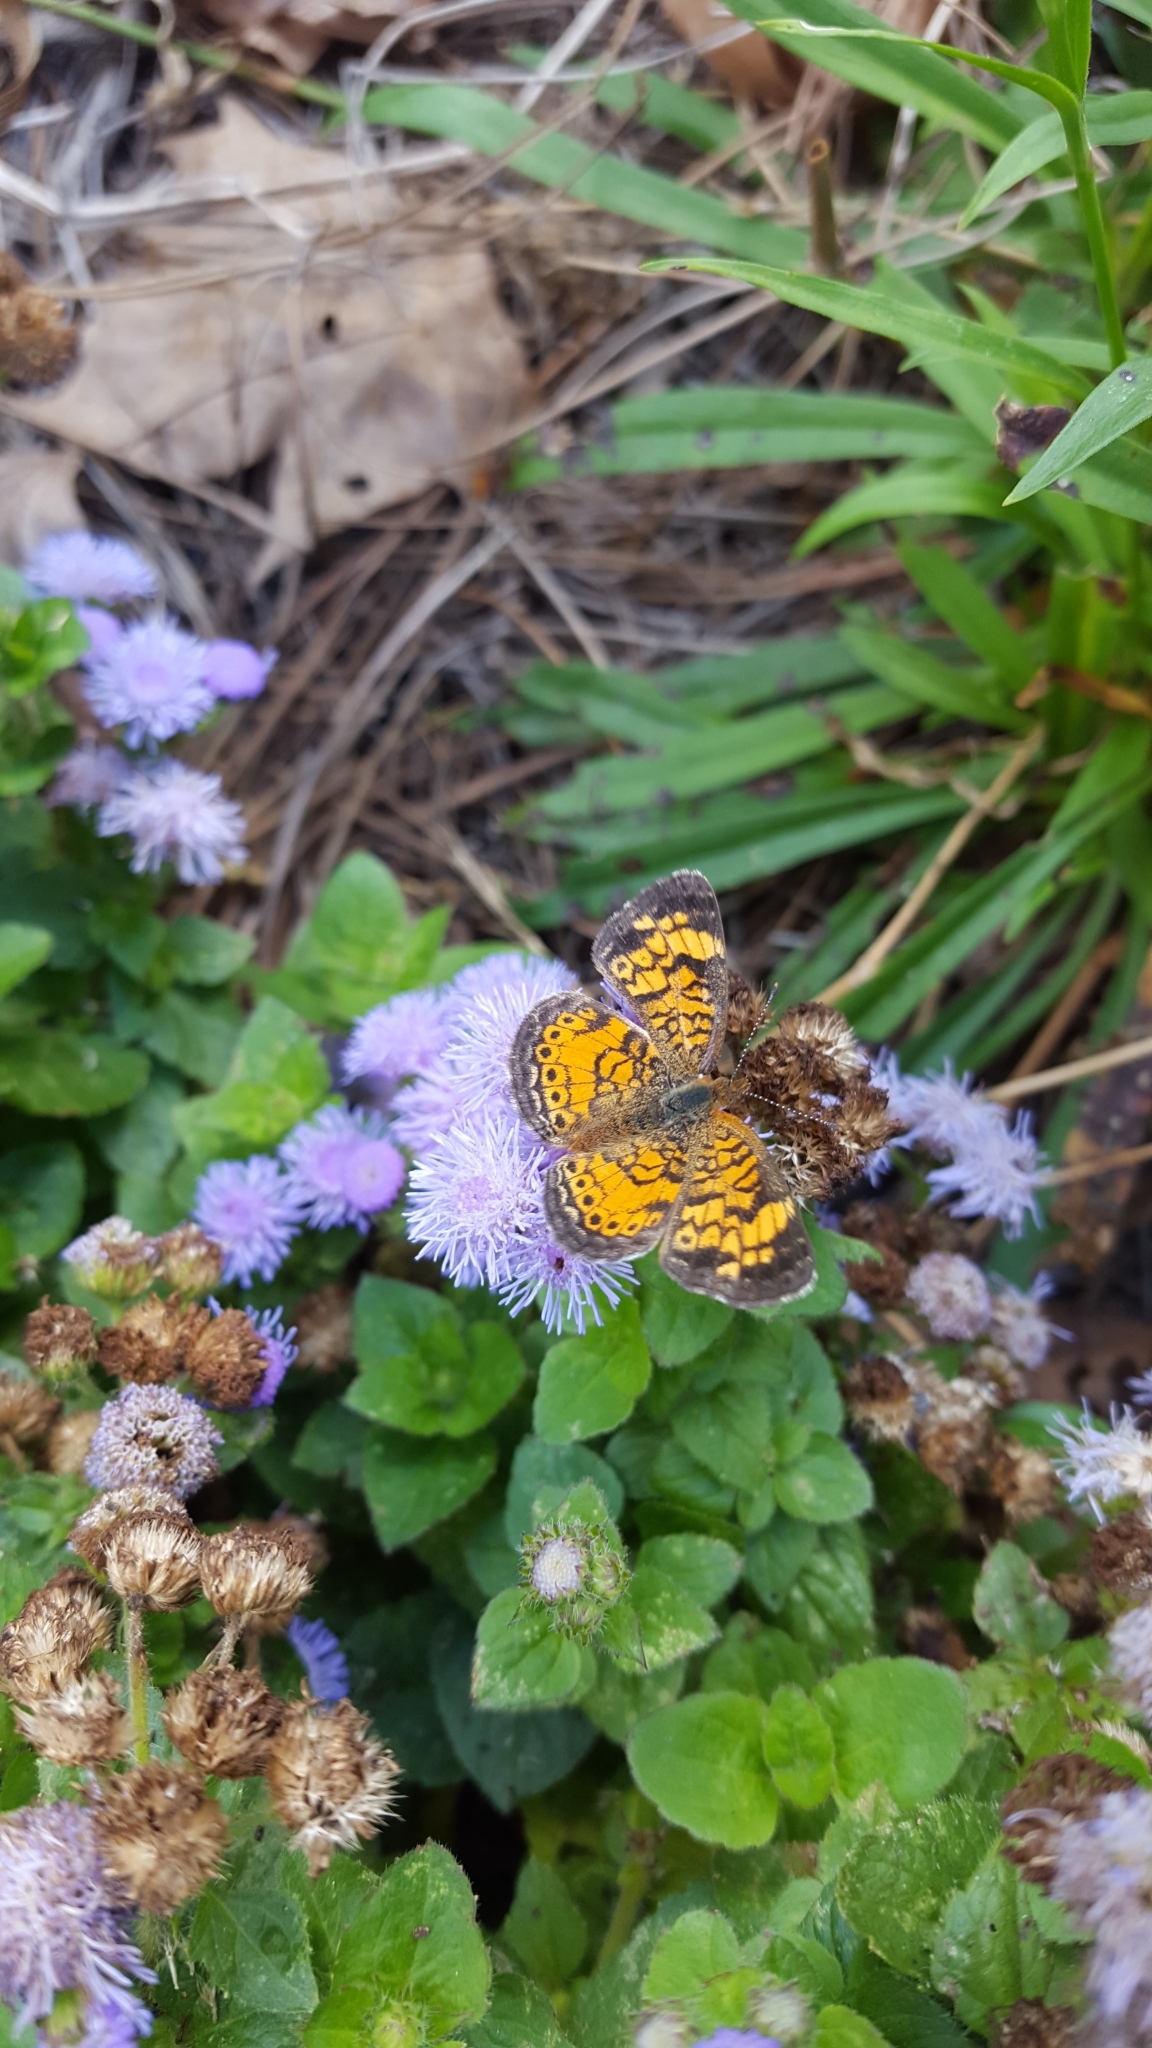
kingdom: Animalia
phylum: Arthropoda
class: Insecta
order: Lepidoptera
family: Nymphalidae
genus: Phyciodes
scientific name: Phyciodes tharos
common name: Pearl crescent
